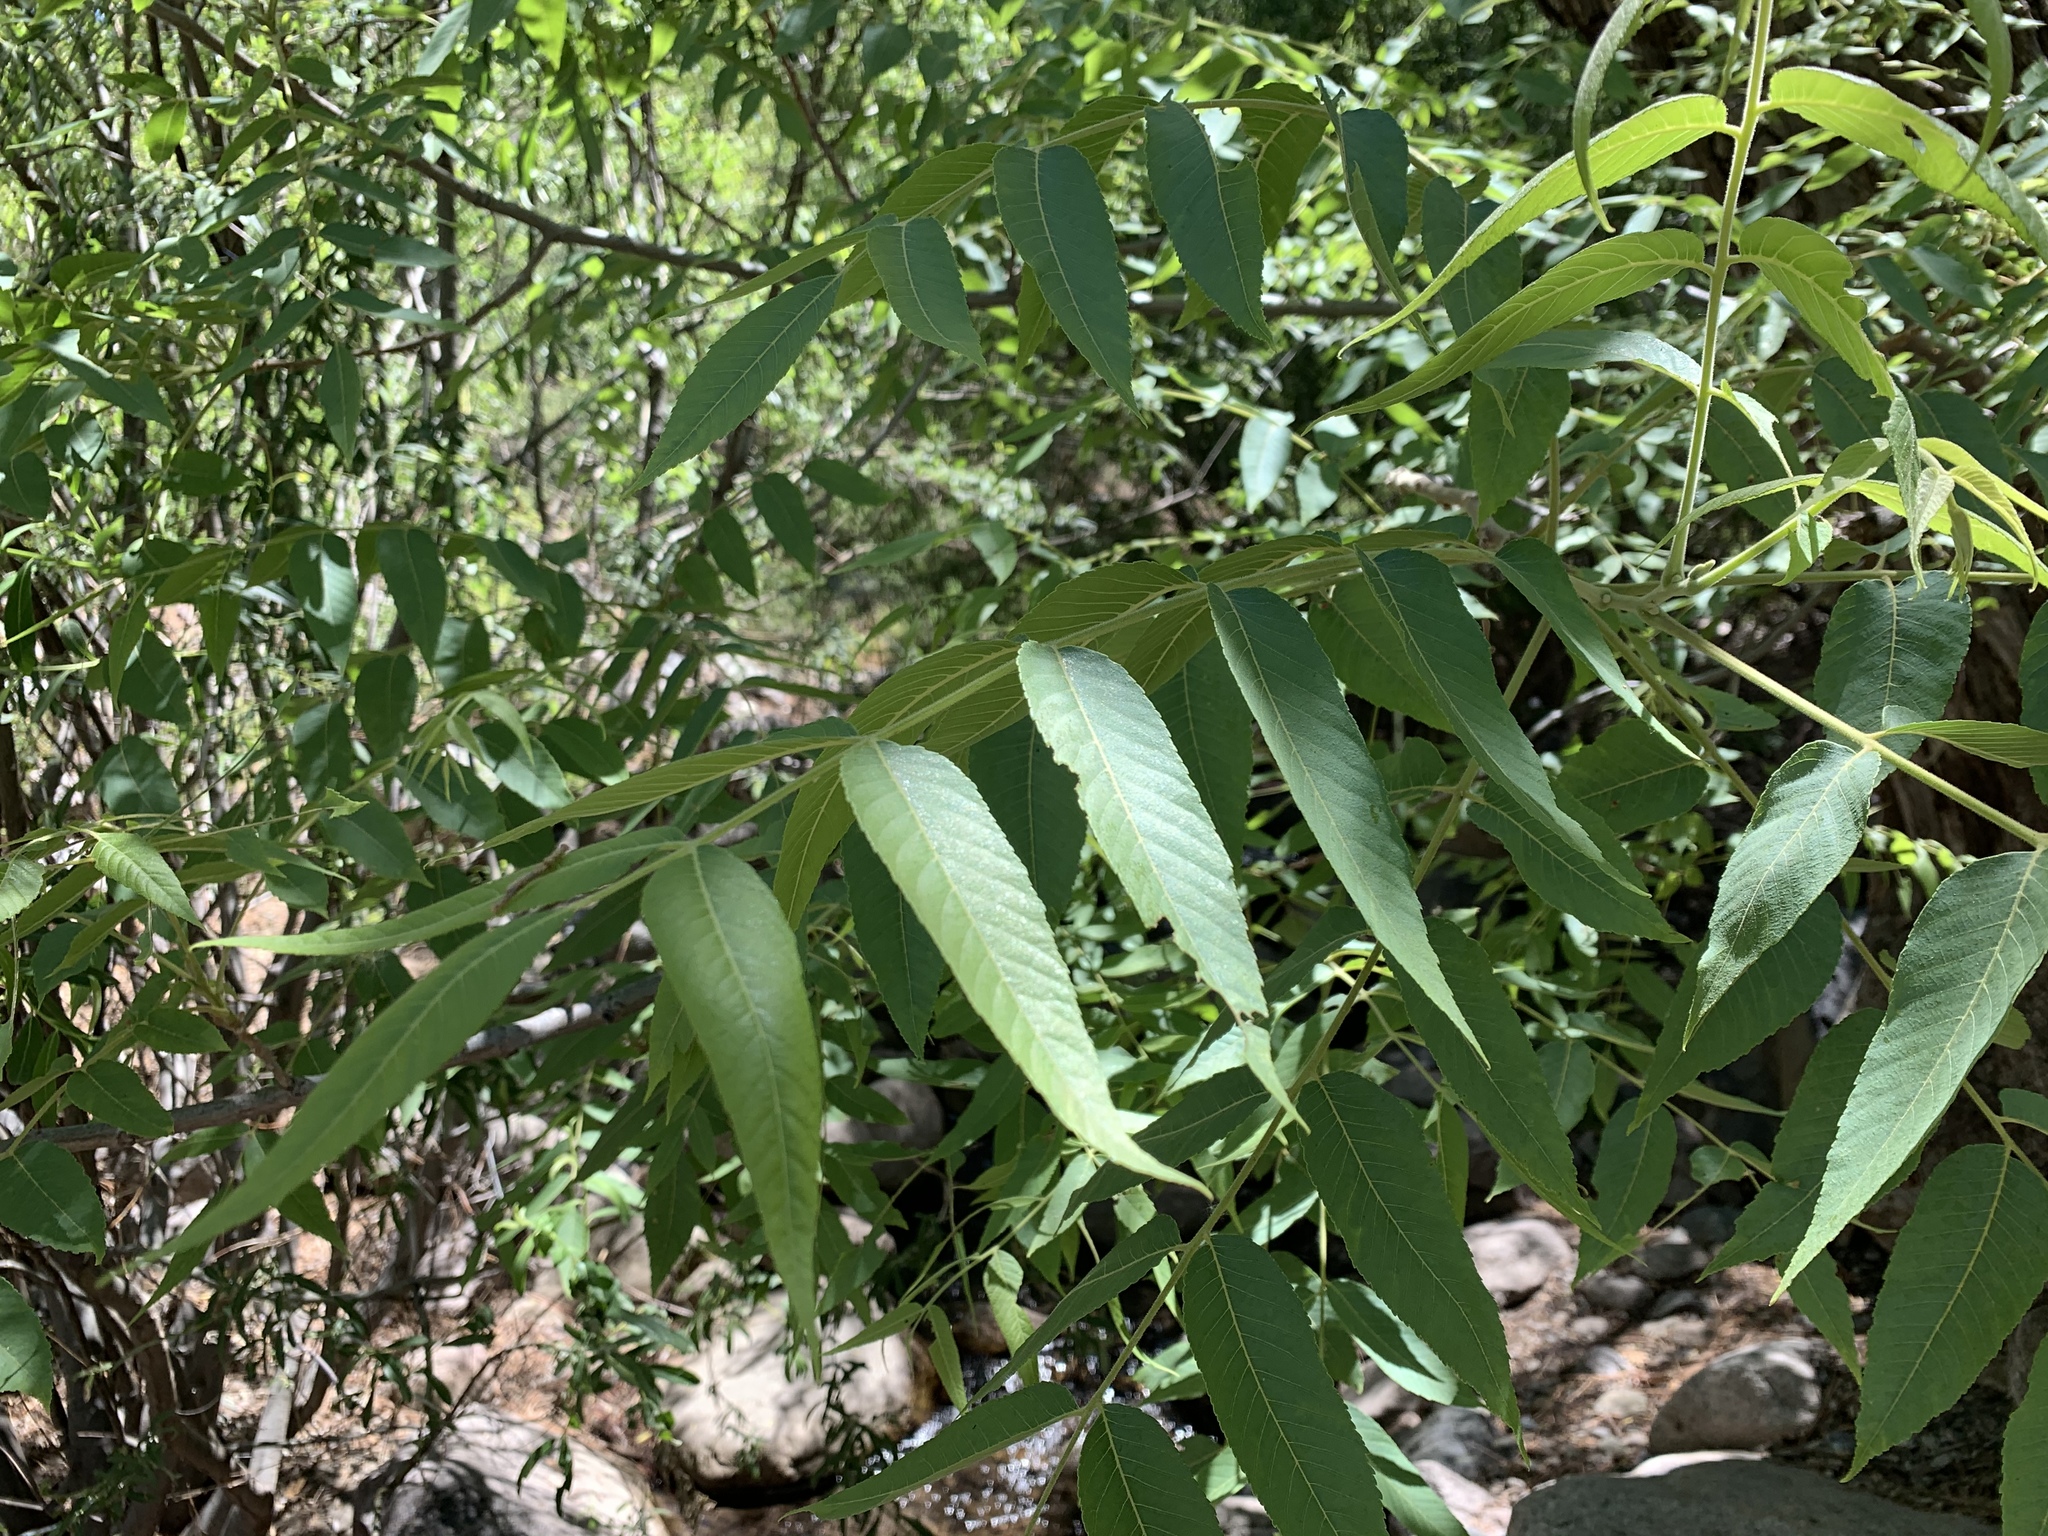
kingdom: Plantae
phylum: Tracheophyta
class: Magnoliopsida
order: Fagales
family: Juglandaceae
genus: Juglans
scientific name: Juglans major
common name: Arizona walnut
